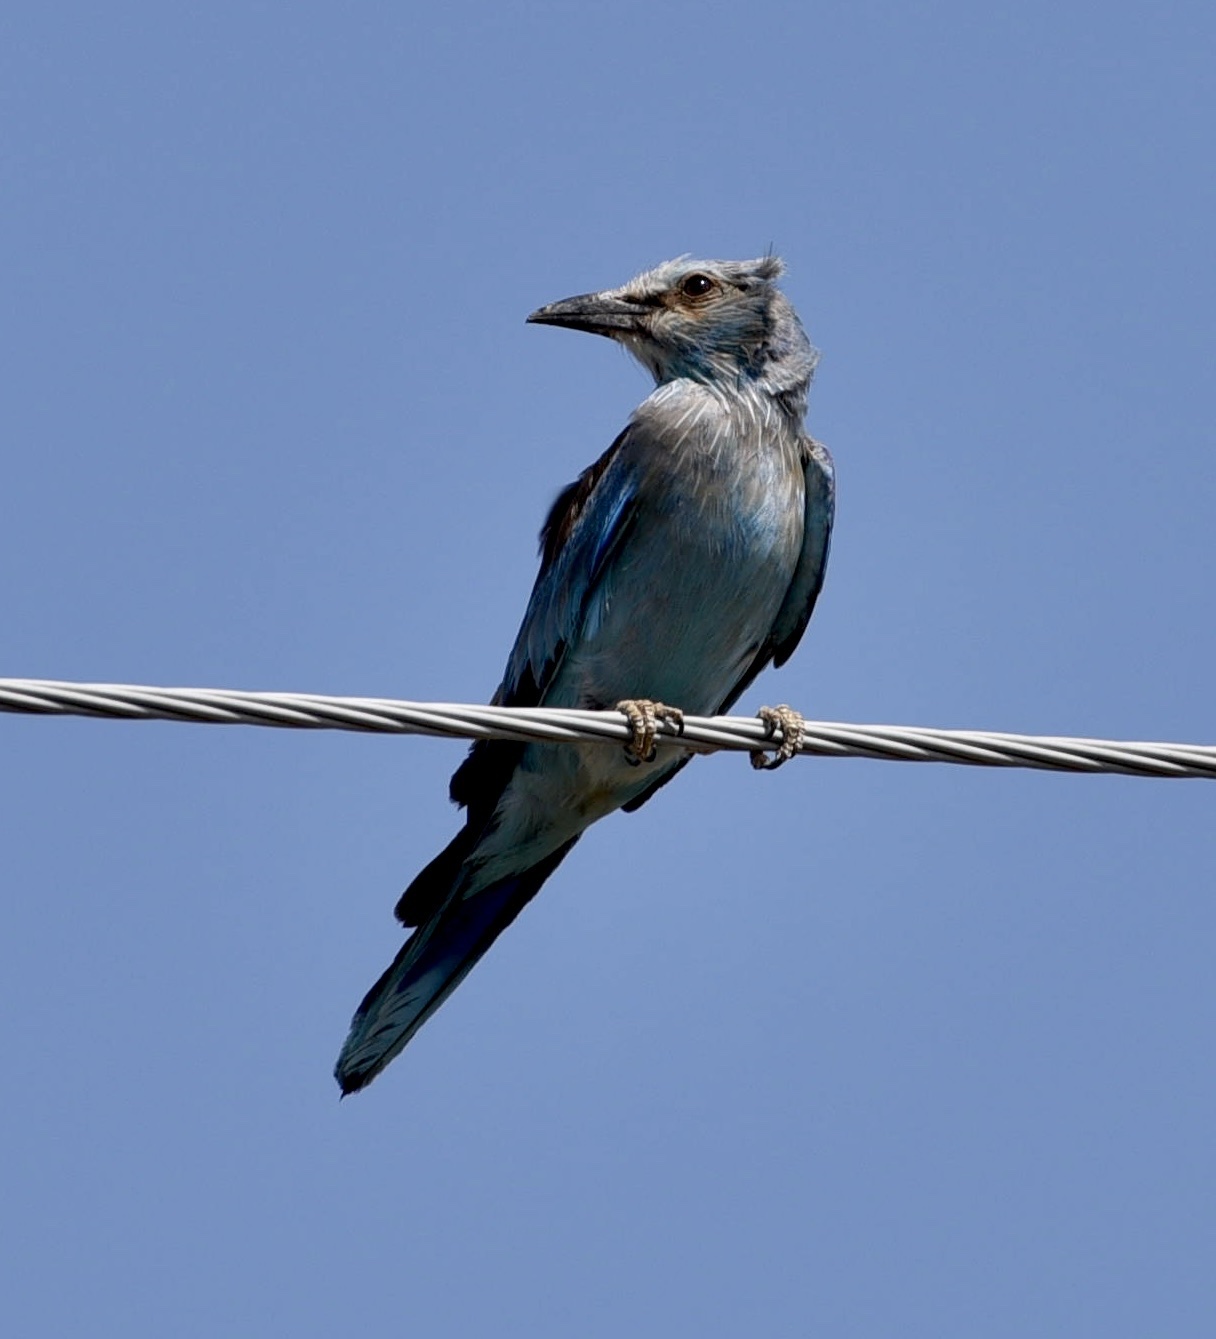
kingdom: Animalia
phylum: Chordata
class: Aves
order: Coraciiformes
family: Coraciidae
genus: Coracias
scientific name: Coracias garrulus
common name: European roller
